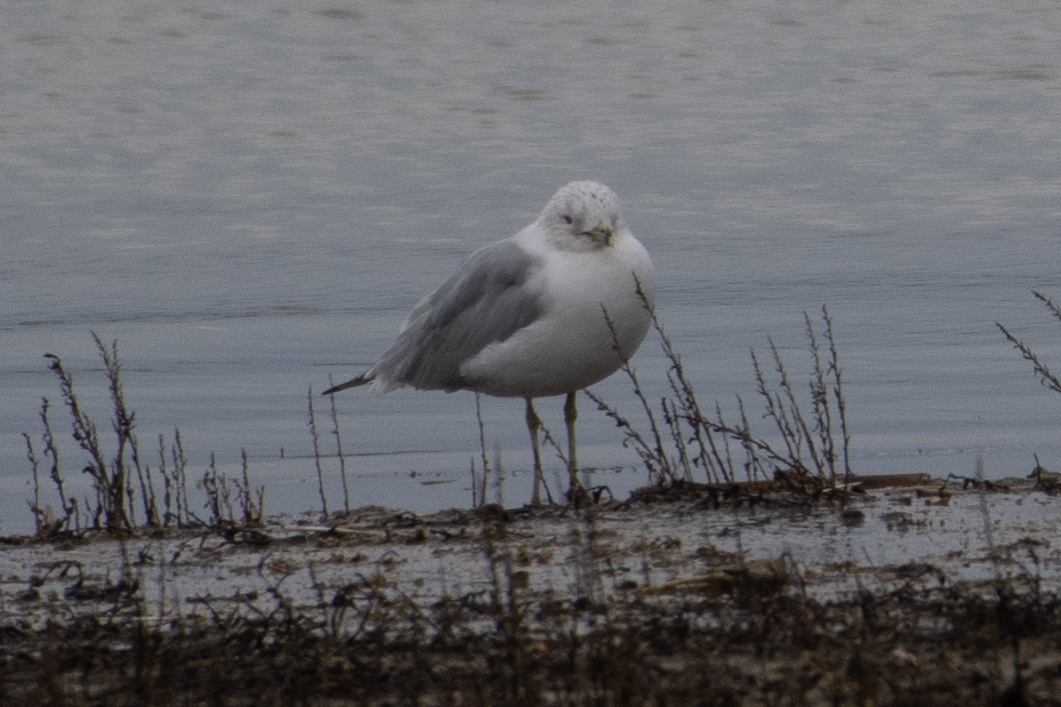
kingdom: Animalia
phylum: Chordata
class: Aves
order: Charadriiformes
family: Laridae
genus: Larus
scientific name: Larus delawarensis
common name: Ring-billed gull
